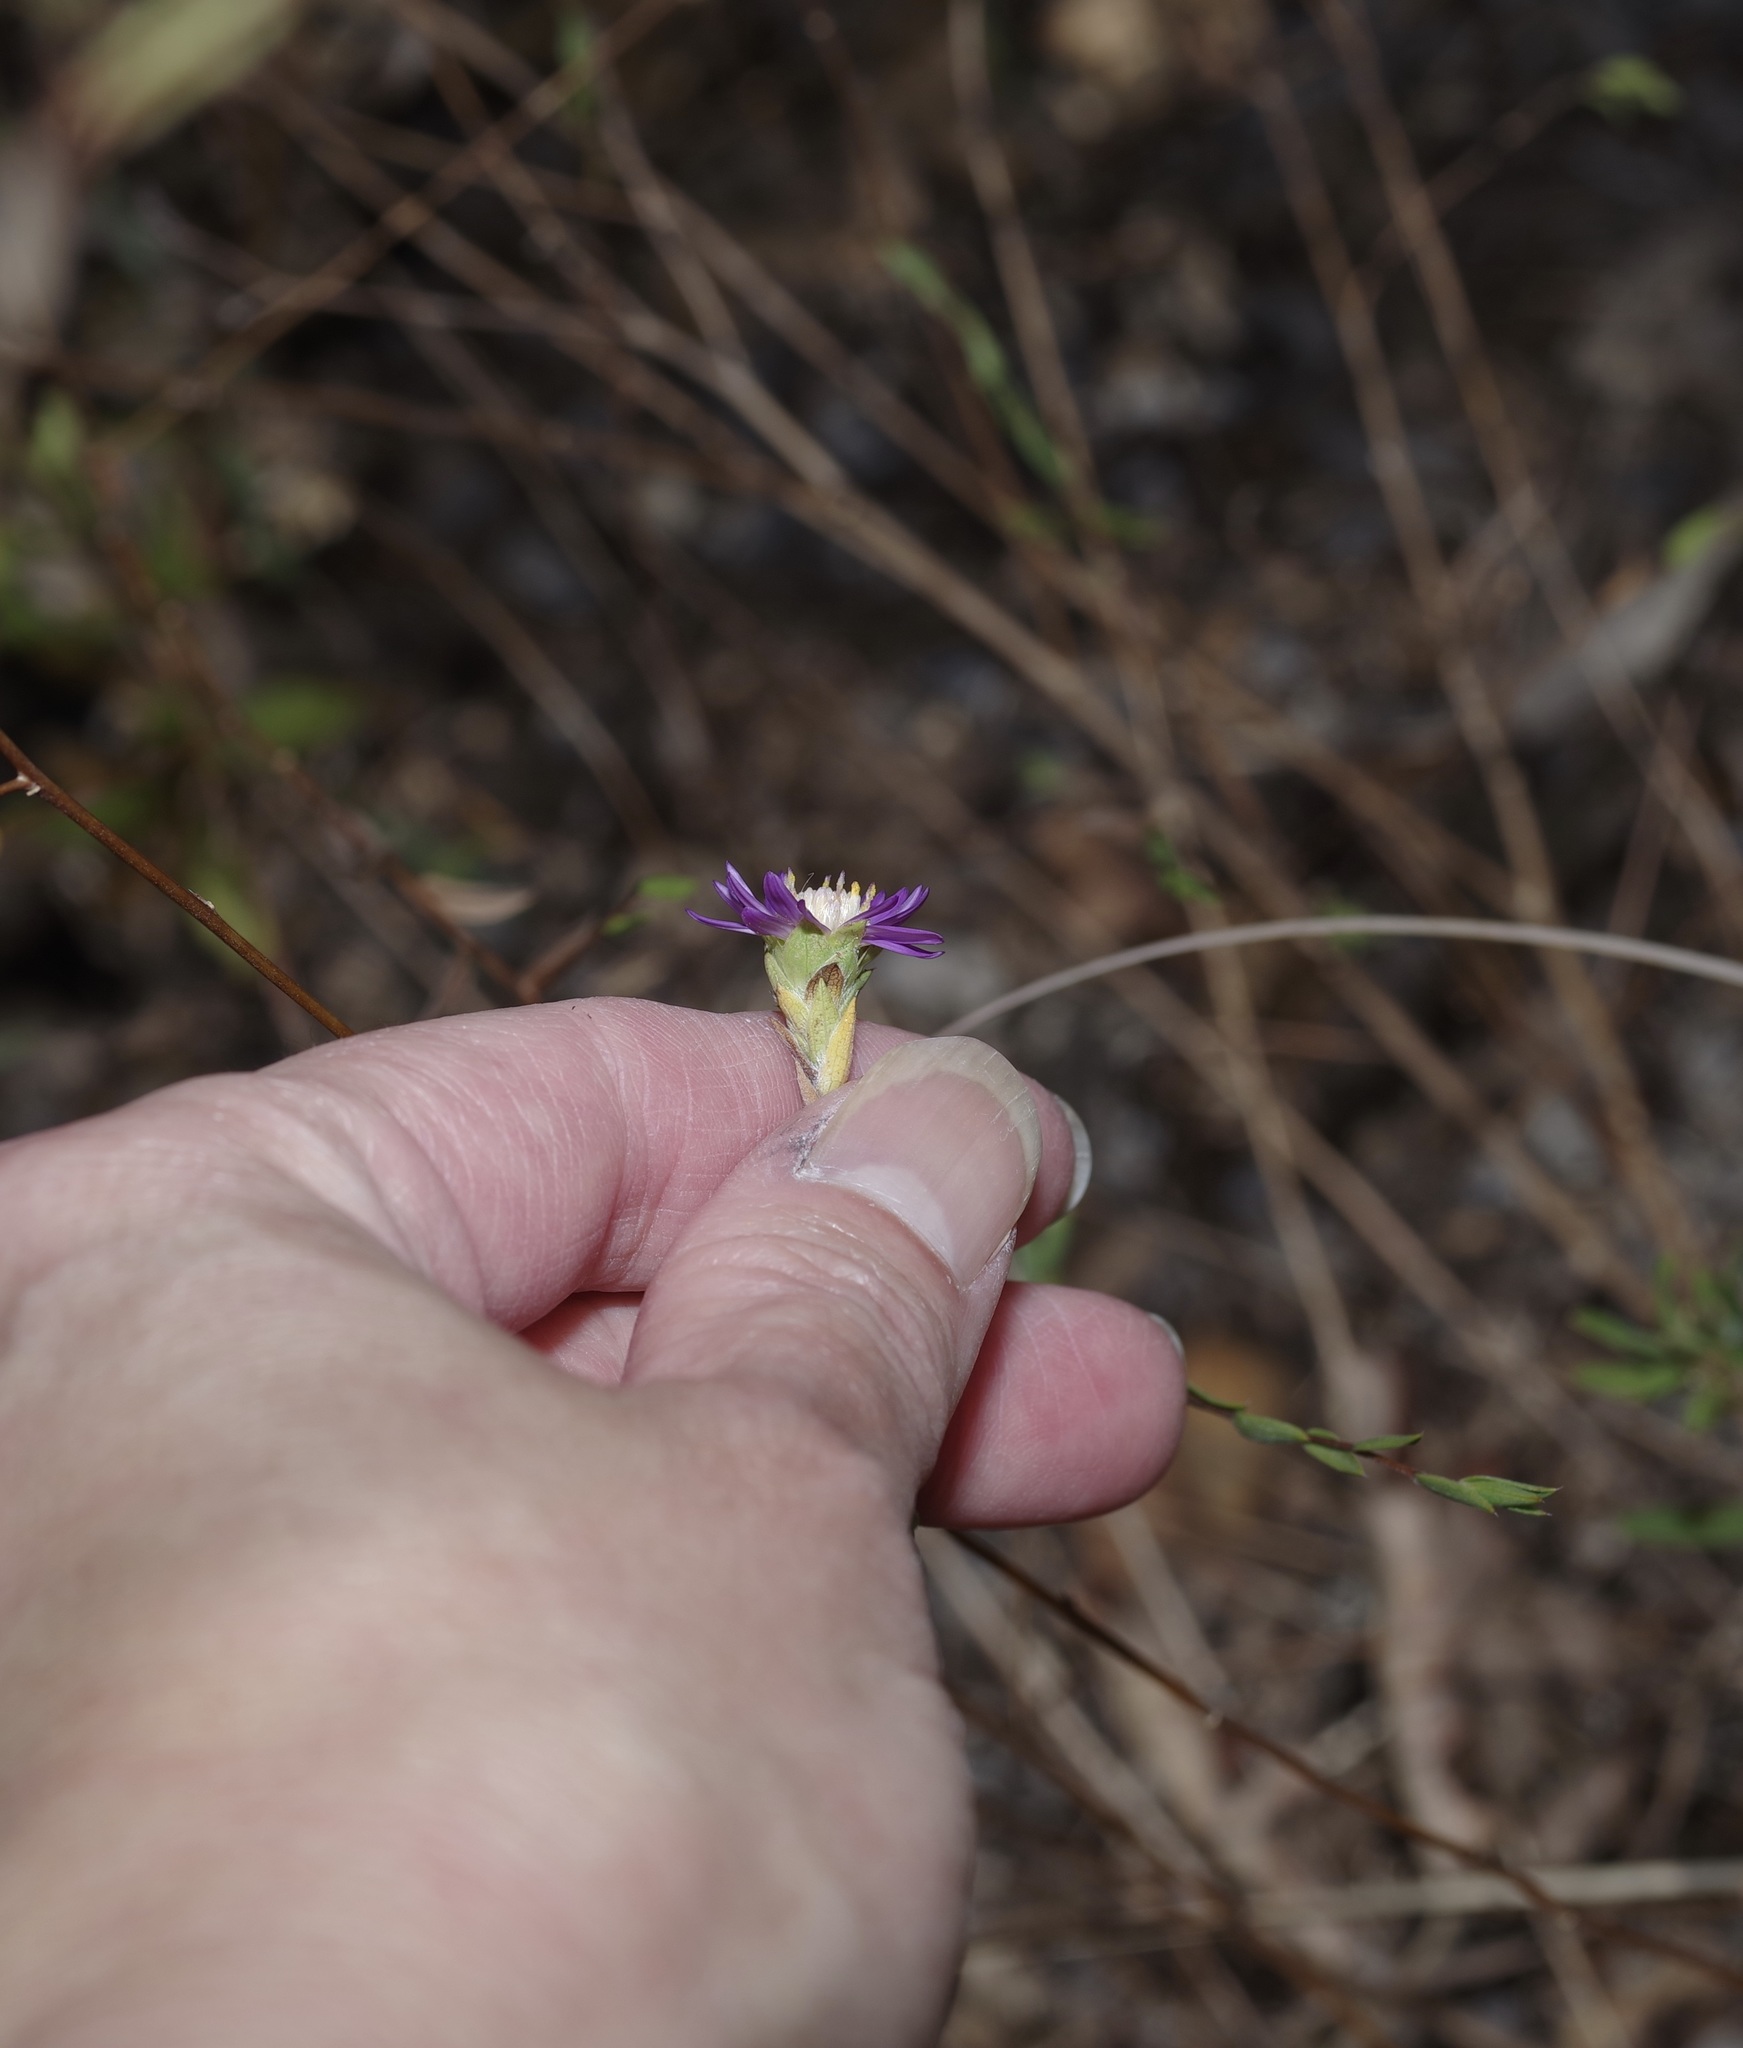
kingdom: Plantae
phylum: Tracheophyta
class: Magnoliopsida
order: Asterales
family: Asteraceae
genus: Symphyotrichum
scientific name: Symphyotrichum pratense
